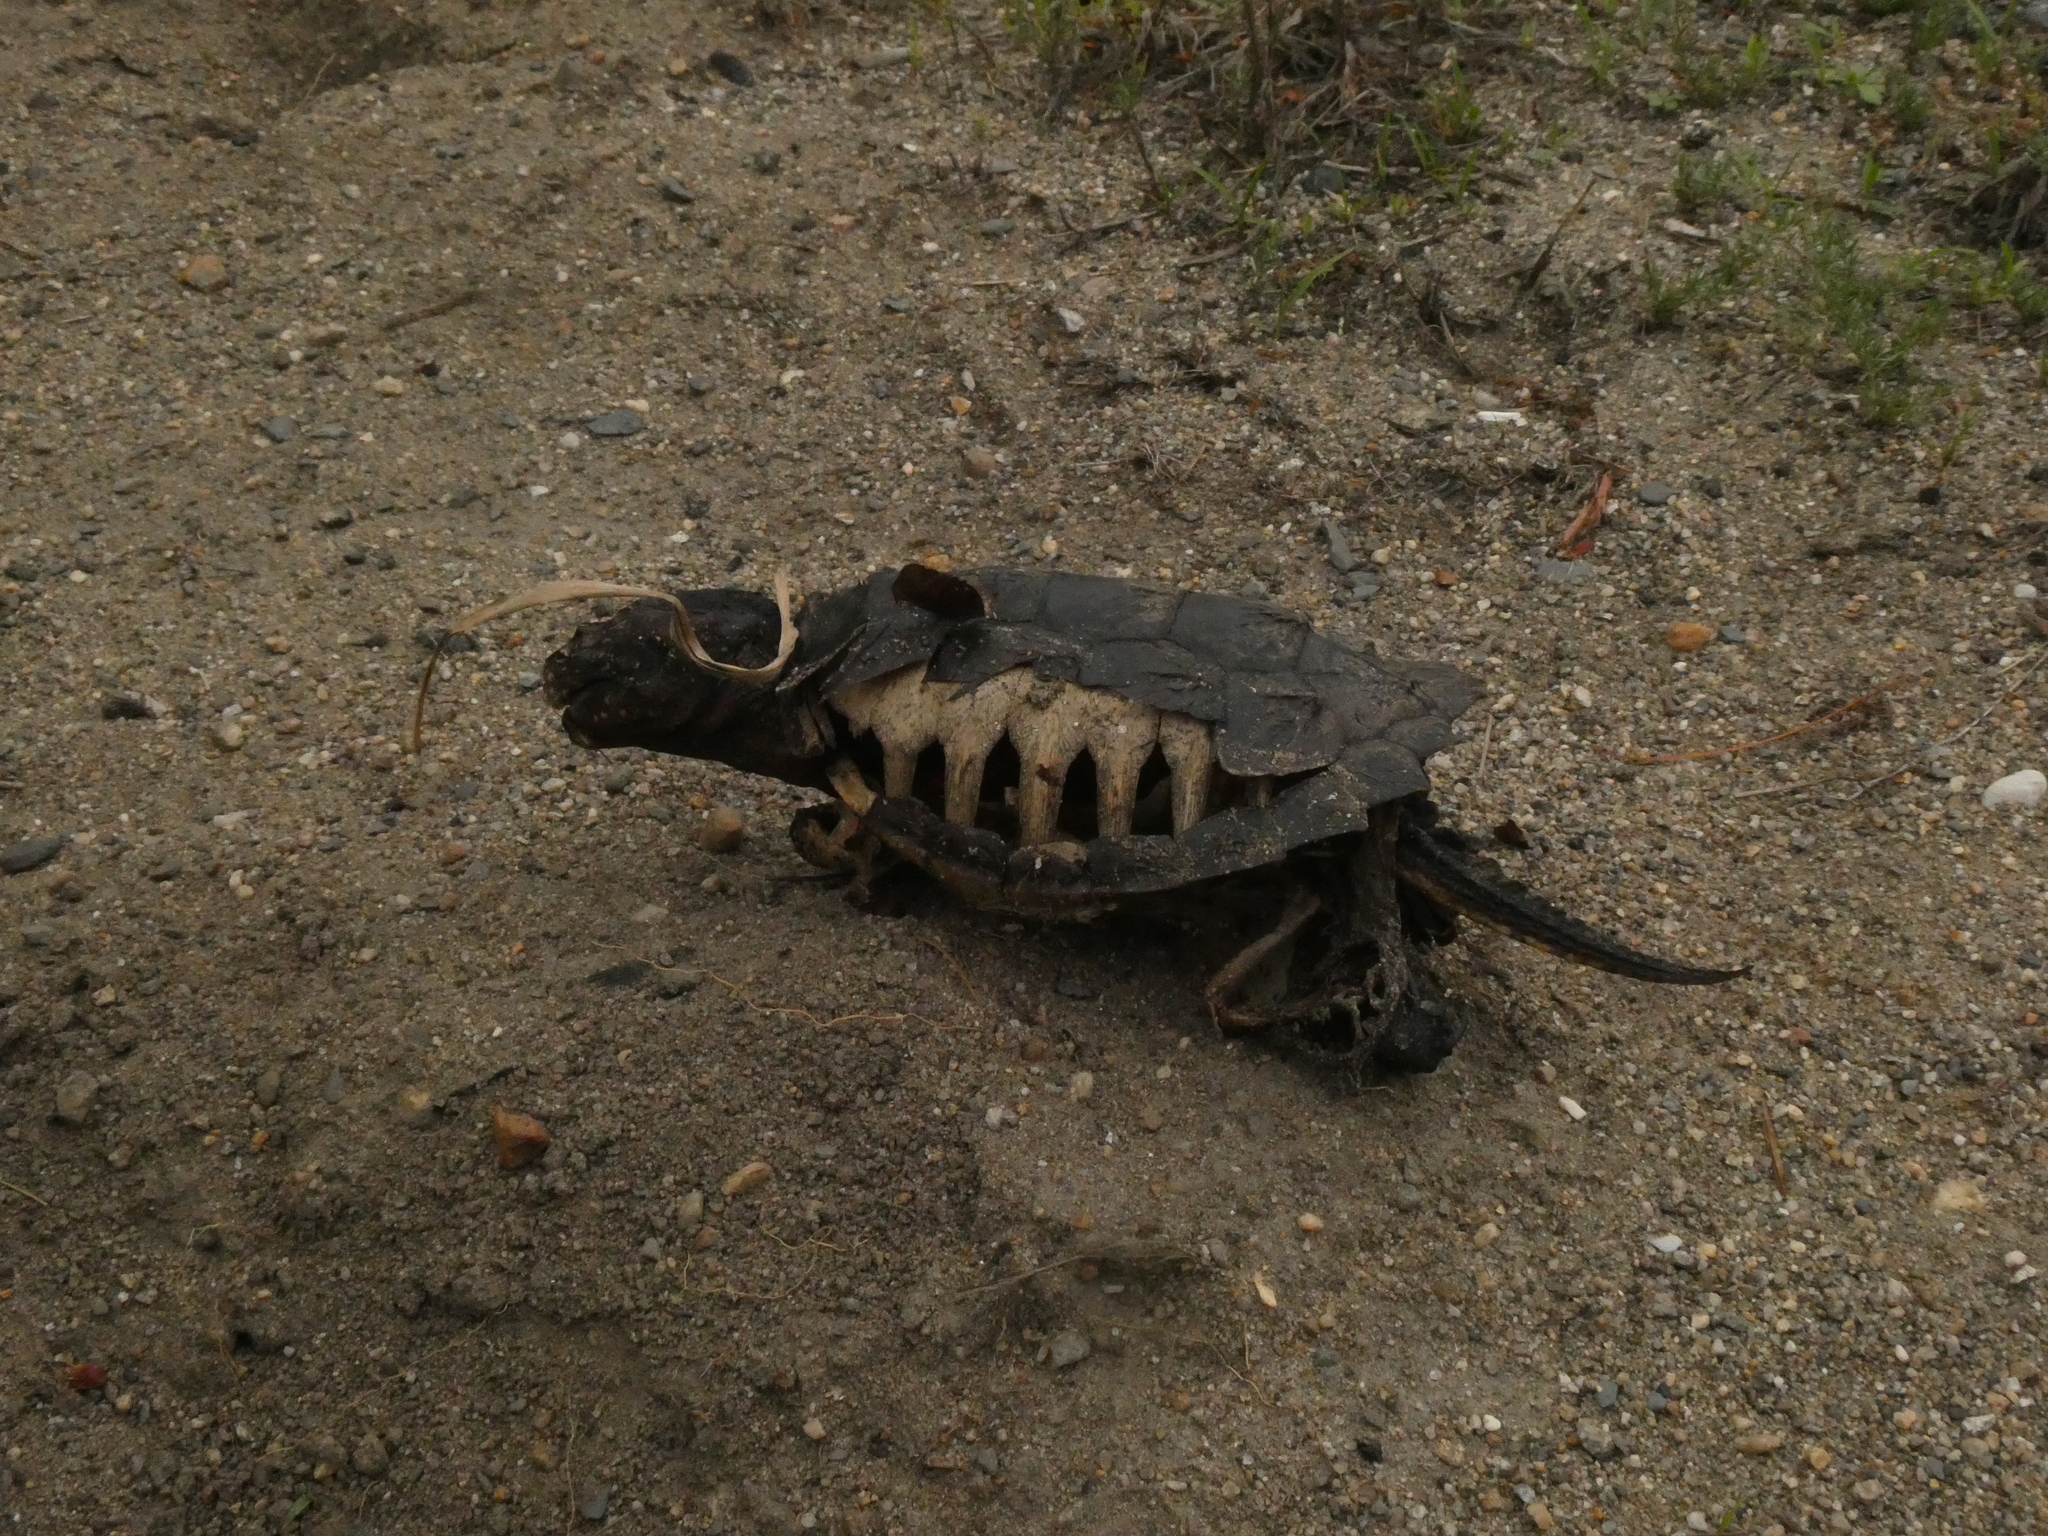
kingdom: Animalia
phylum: Chordata
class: Testudines
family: Chelydridae
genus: Chelydra
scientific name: Chelydra serpentina
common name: Common snapping turtle
